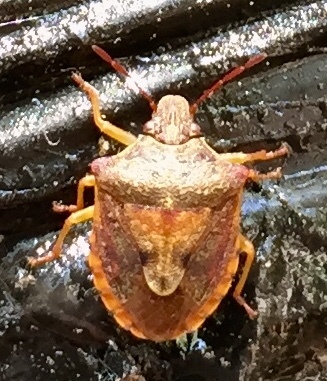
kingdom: Animalia
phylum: Arthropoda
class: Insecta
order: Hemiptera
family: Pentatomidae
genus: Dendrocoris
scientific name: Dendrocoris humeralis
